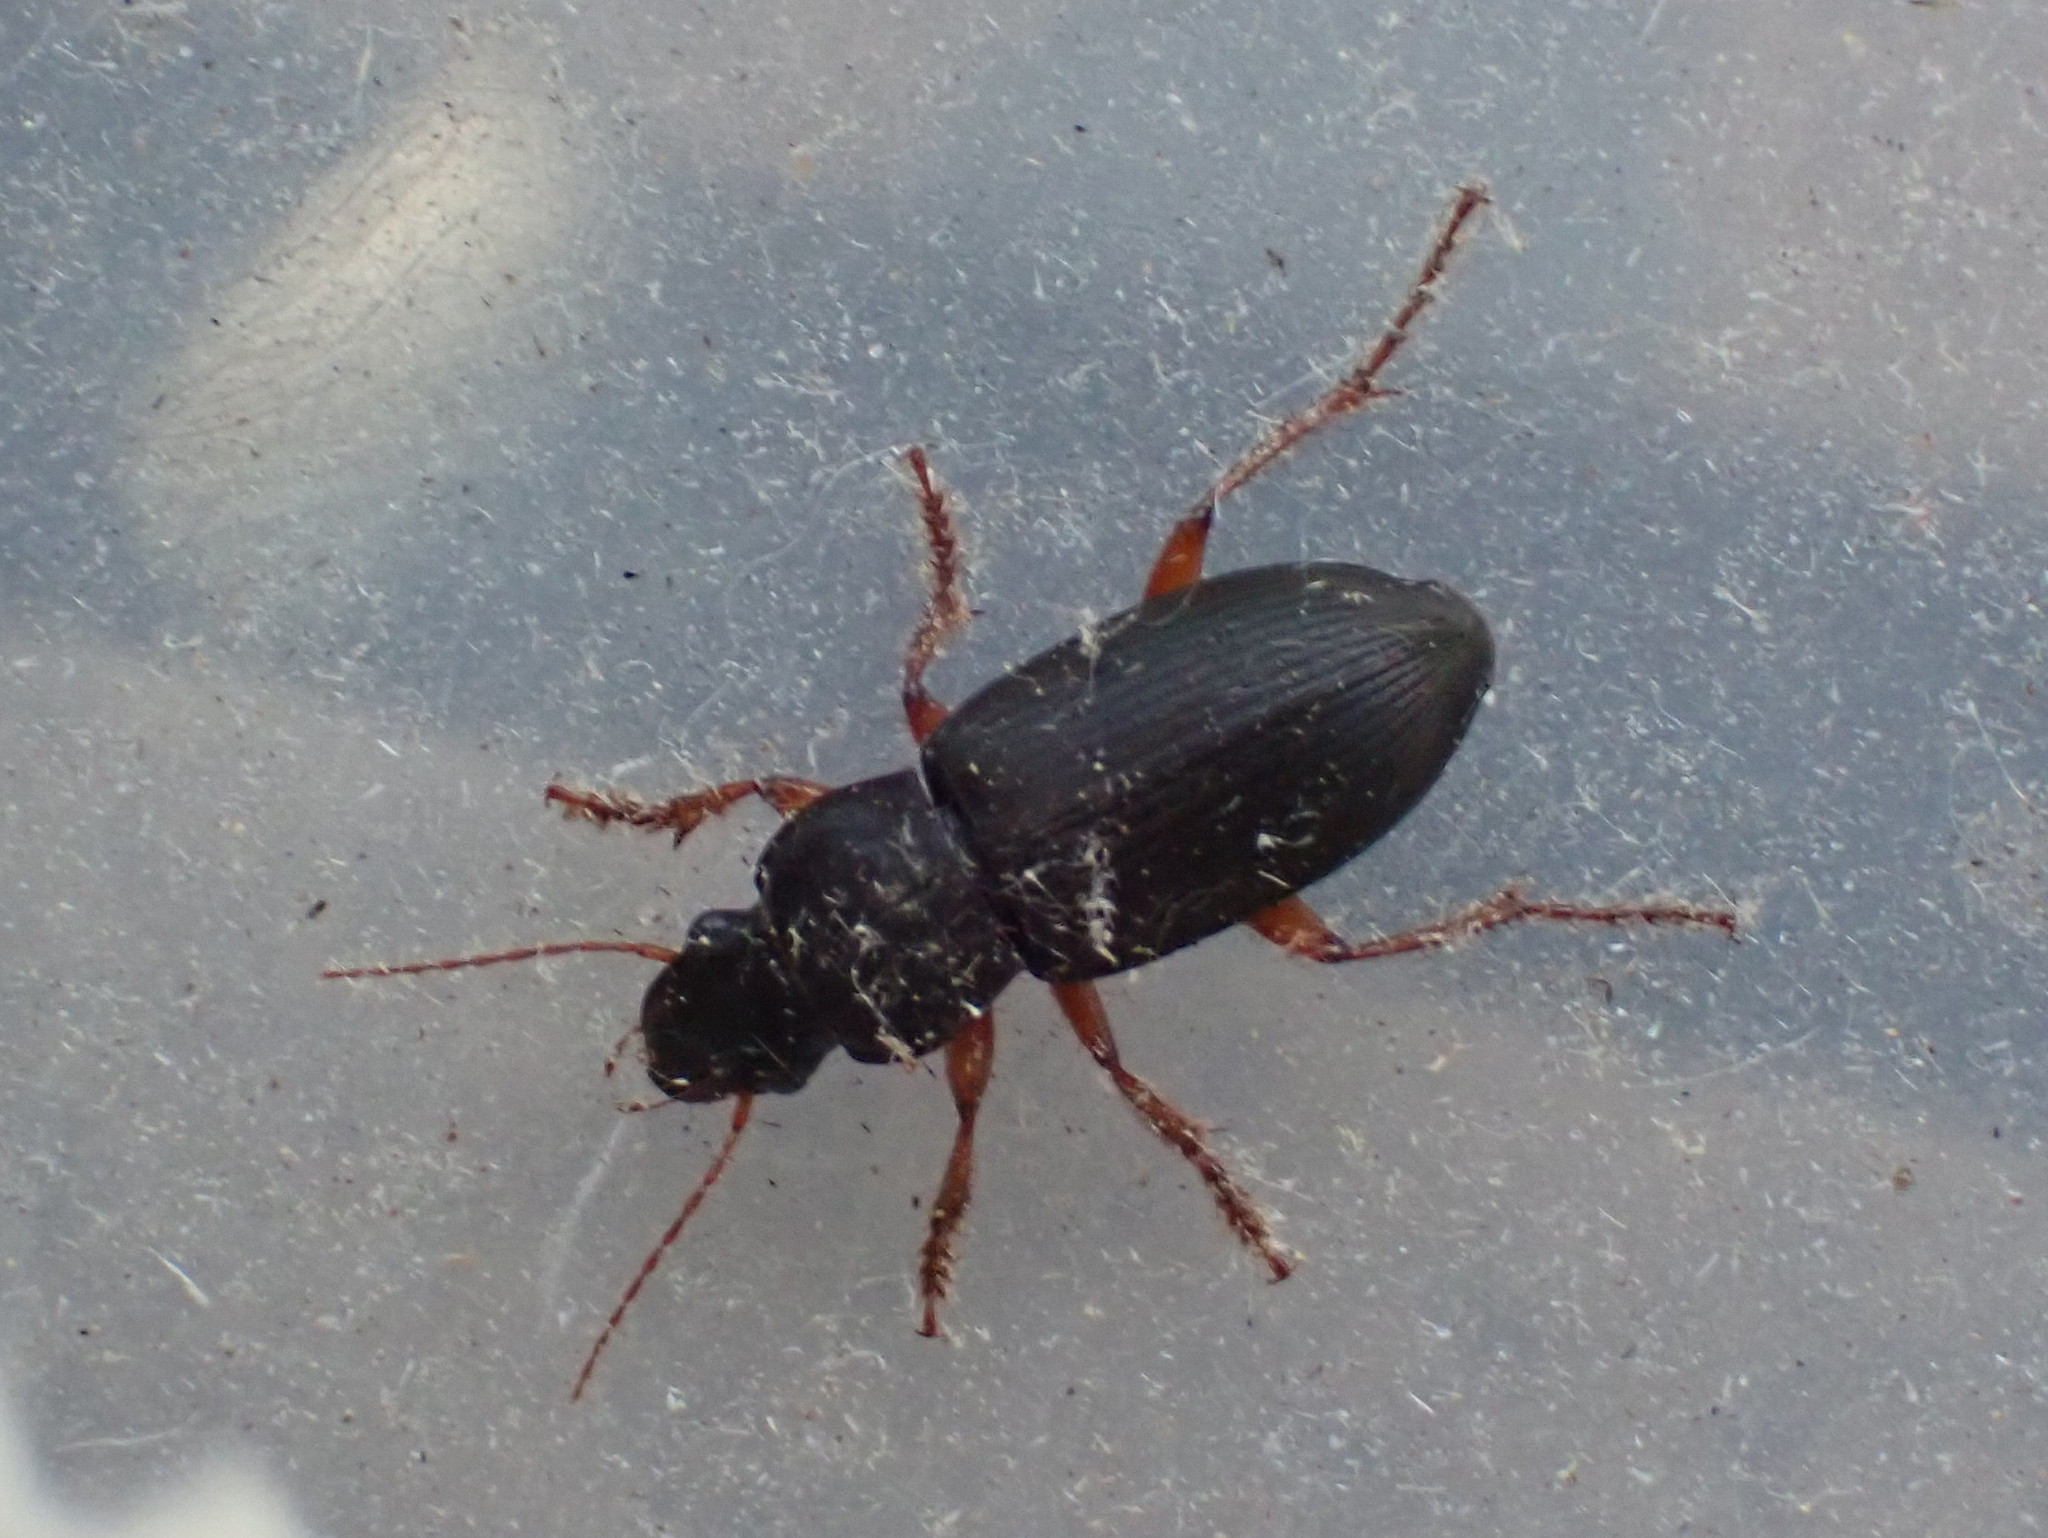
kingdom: Animalia
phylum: Arthropoda
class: Insecta
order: Coleoptera
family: Carabidae
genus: Harpalus
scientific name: Harpalus rufipes
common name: Strawberry harp ground beetle
